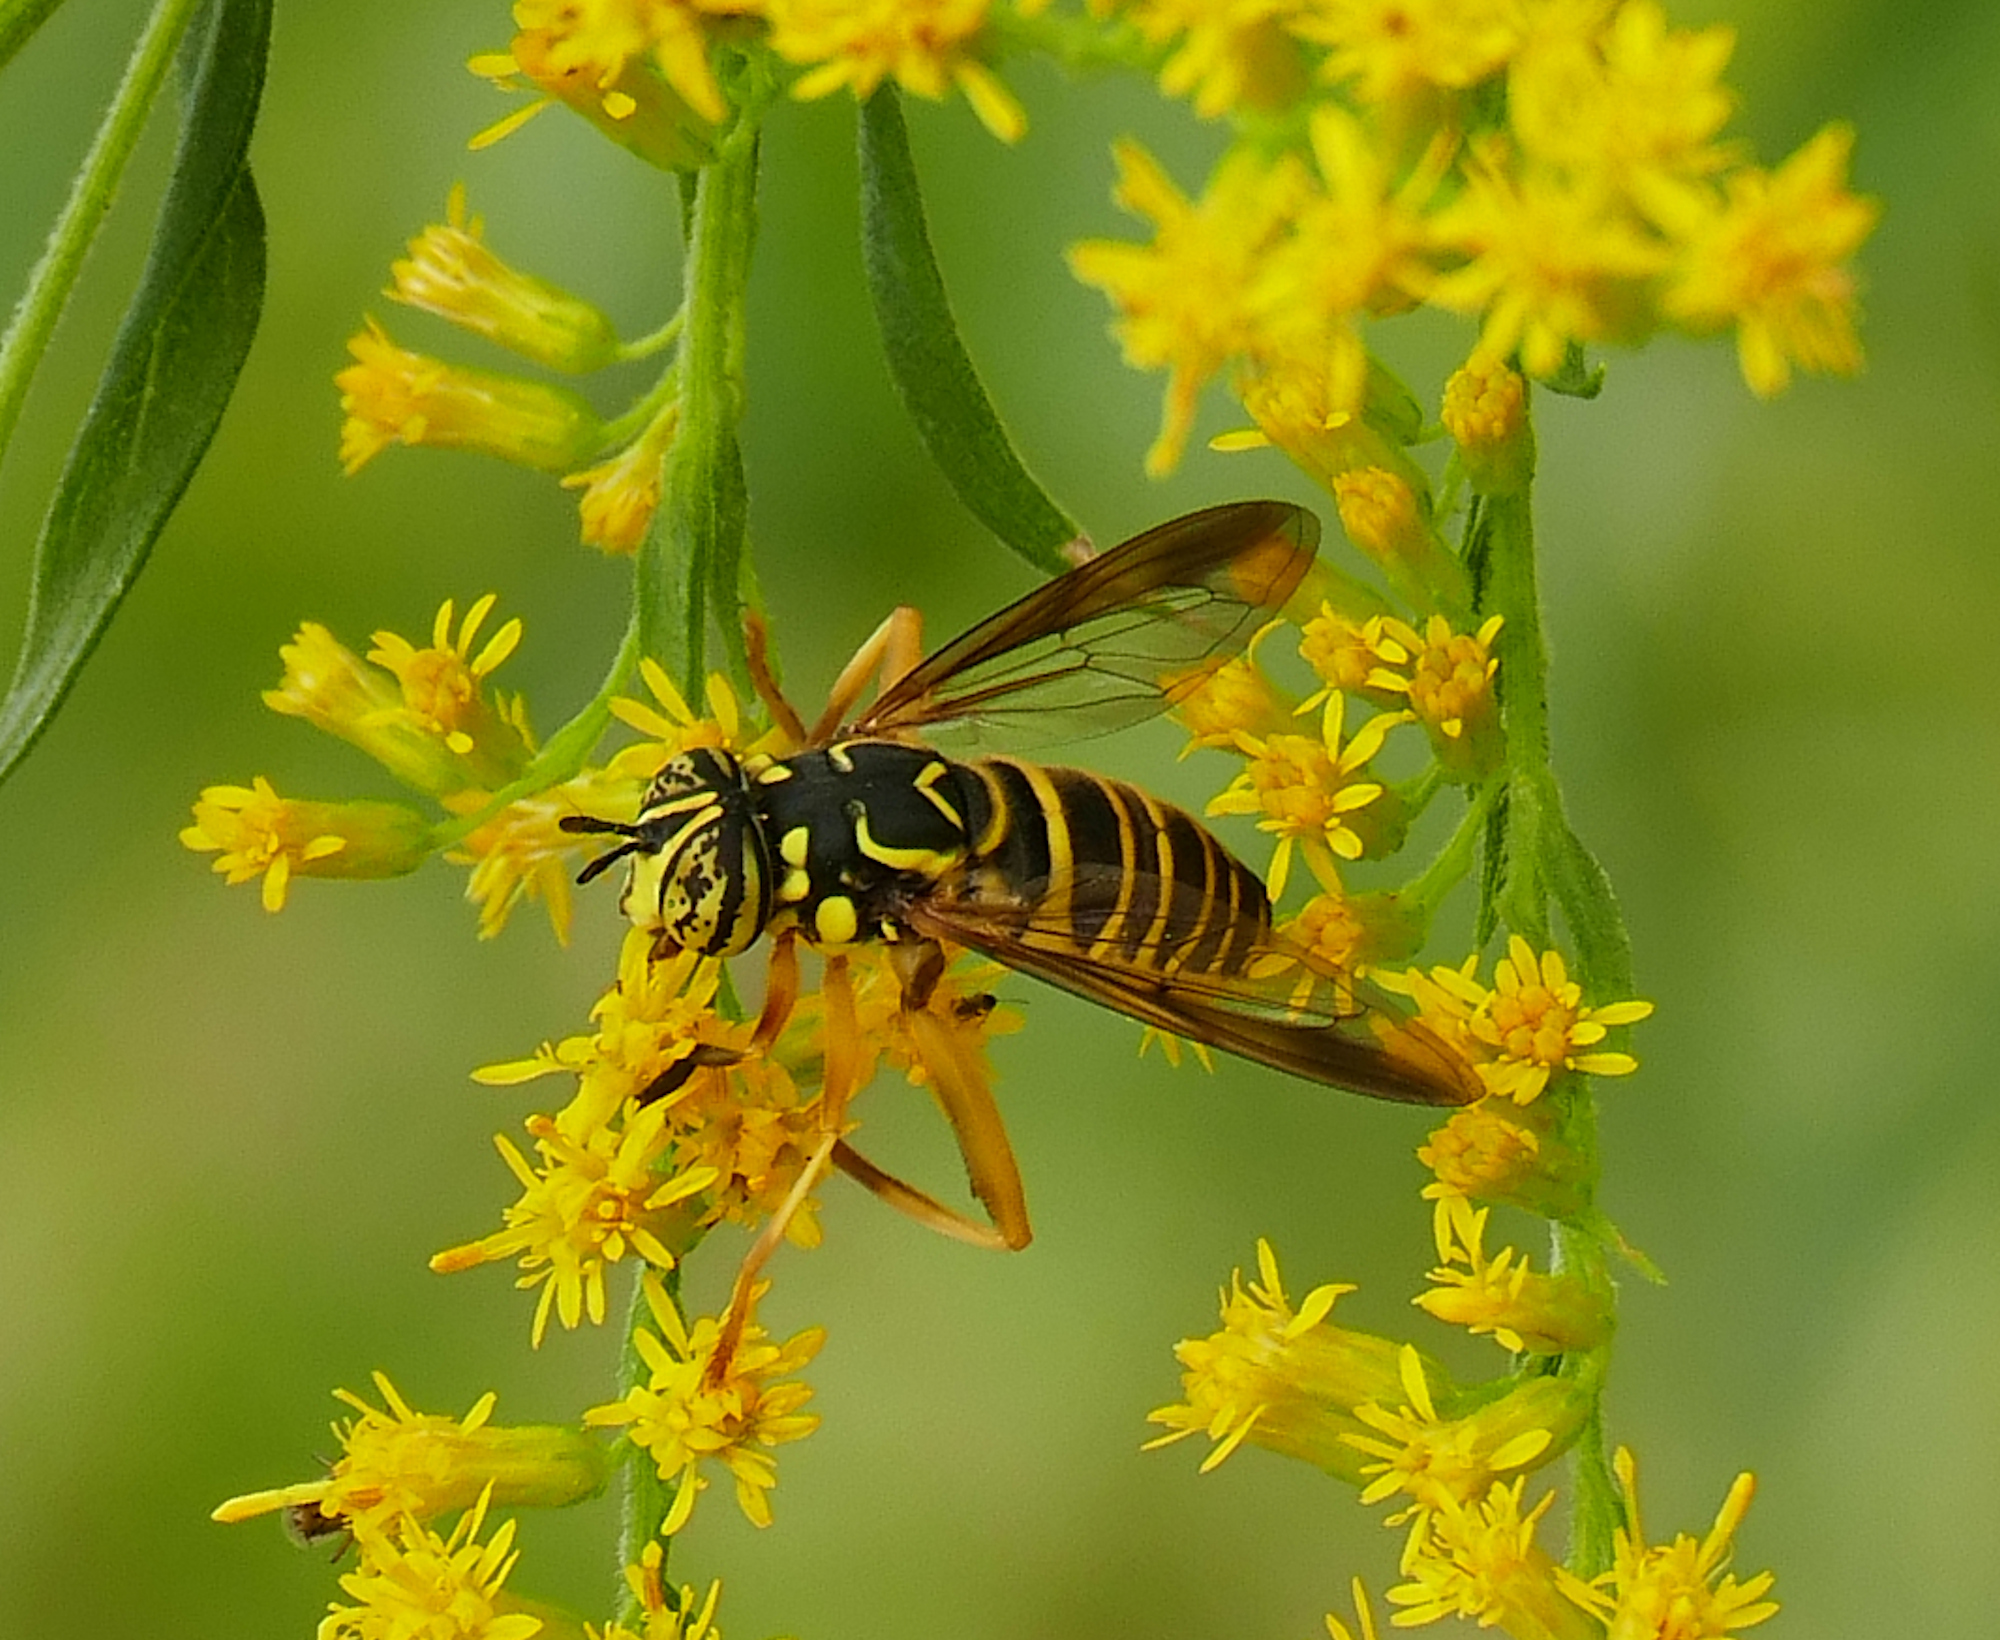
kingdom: Animalia
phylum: Arthropoda
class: Insecta
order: Diptera
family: Syrphidae
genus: Spilomyia
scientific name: Spilomyia longicornis
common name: Eastern hornet fly
